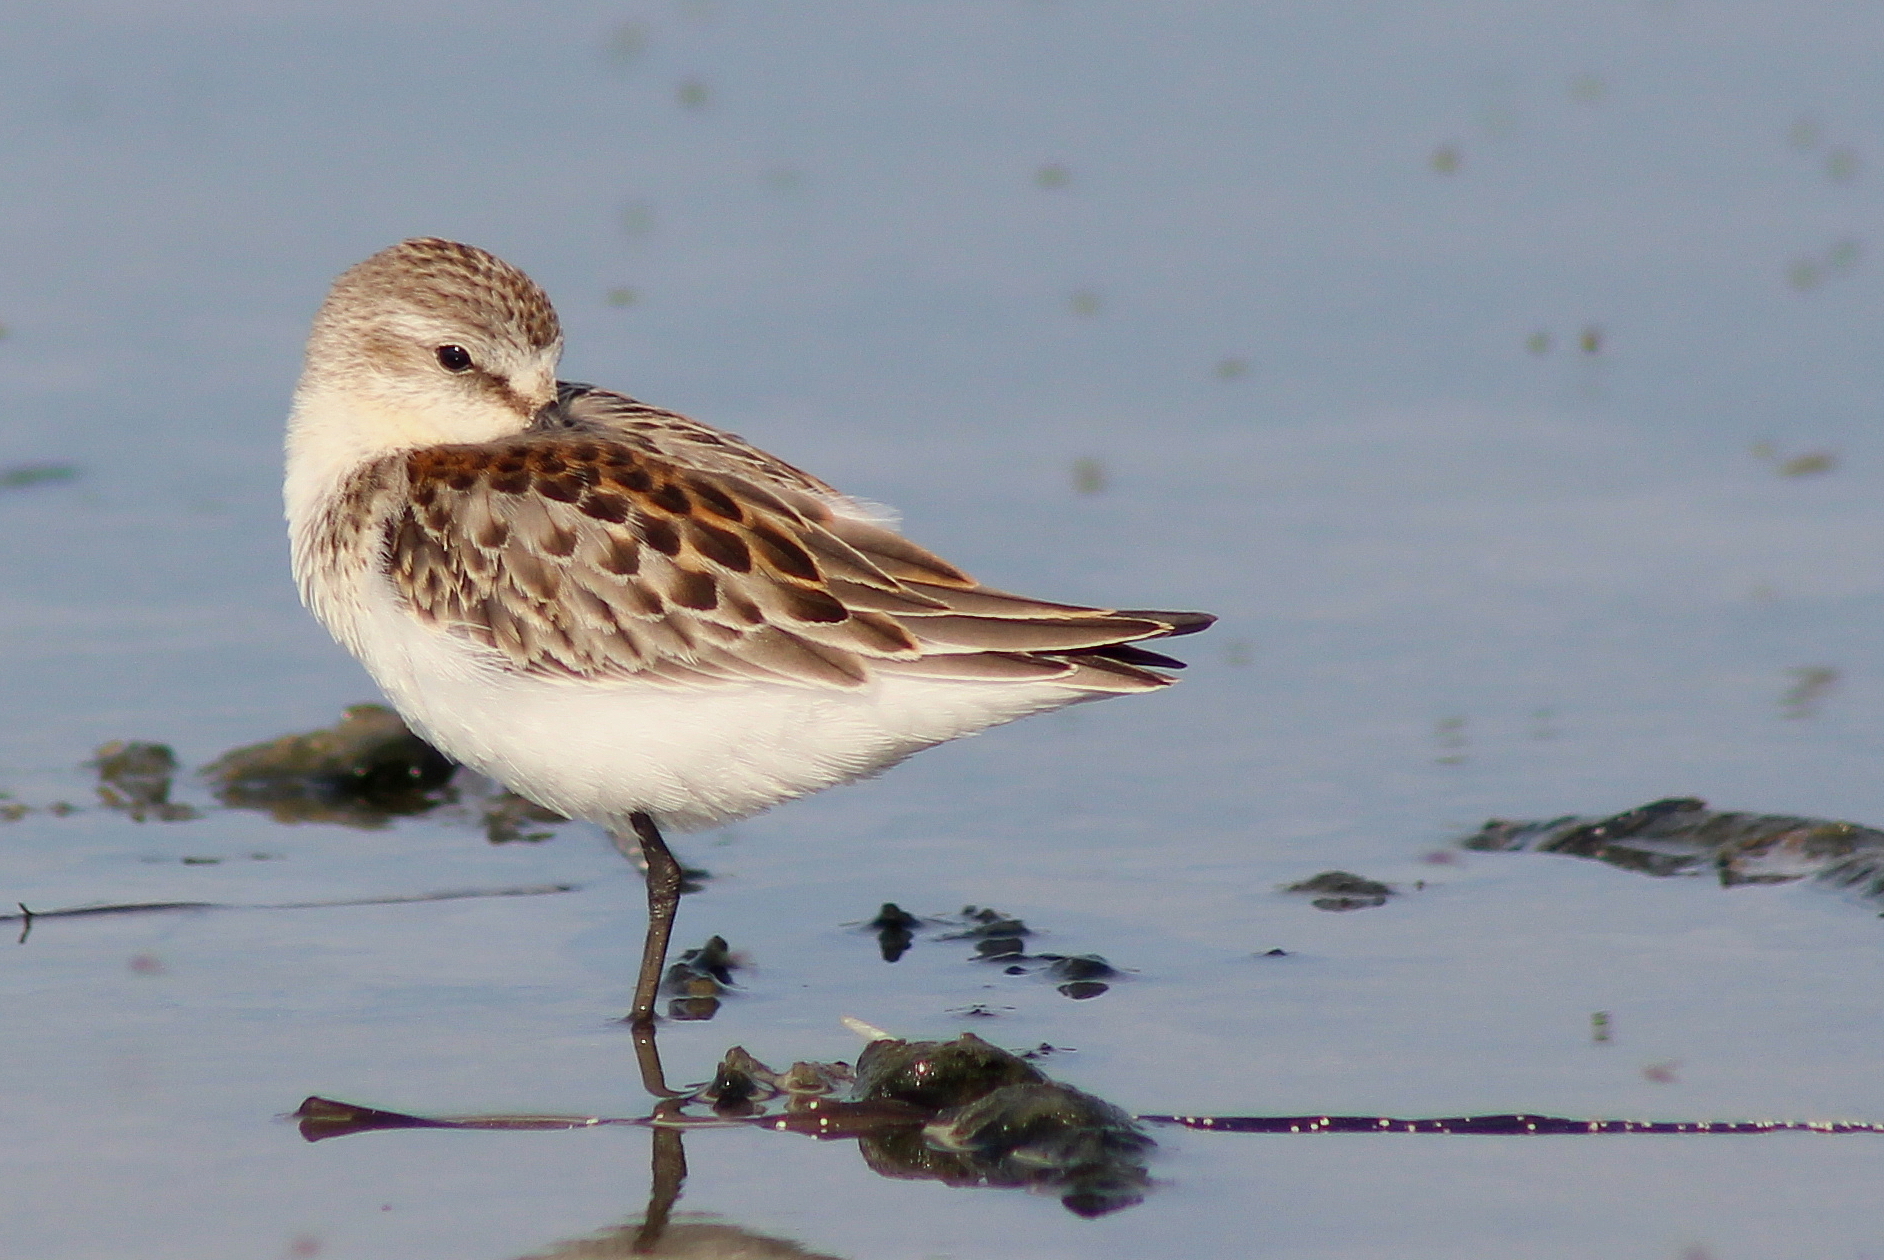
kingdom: Animalia
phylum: Chordata
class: Aves
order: Charadriiformes
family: Scolopacidae
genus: Calidris
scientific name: Calidris mauri
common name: Western sandpiper
